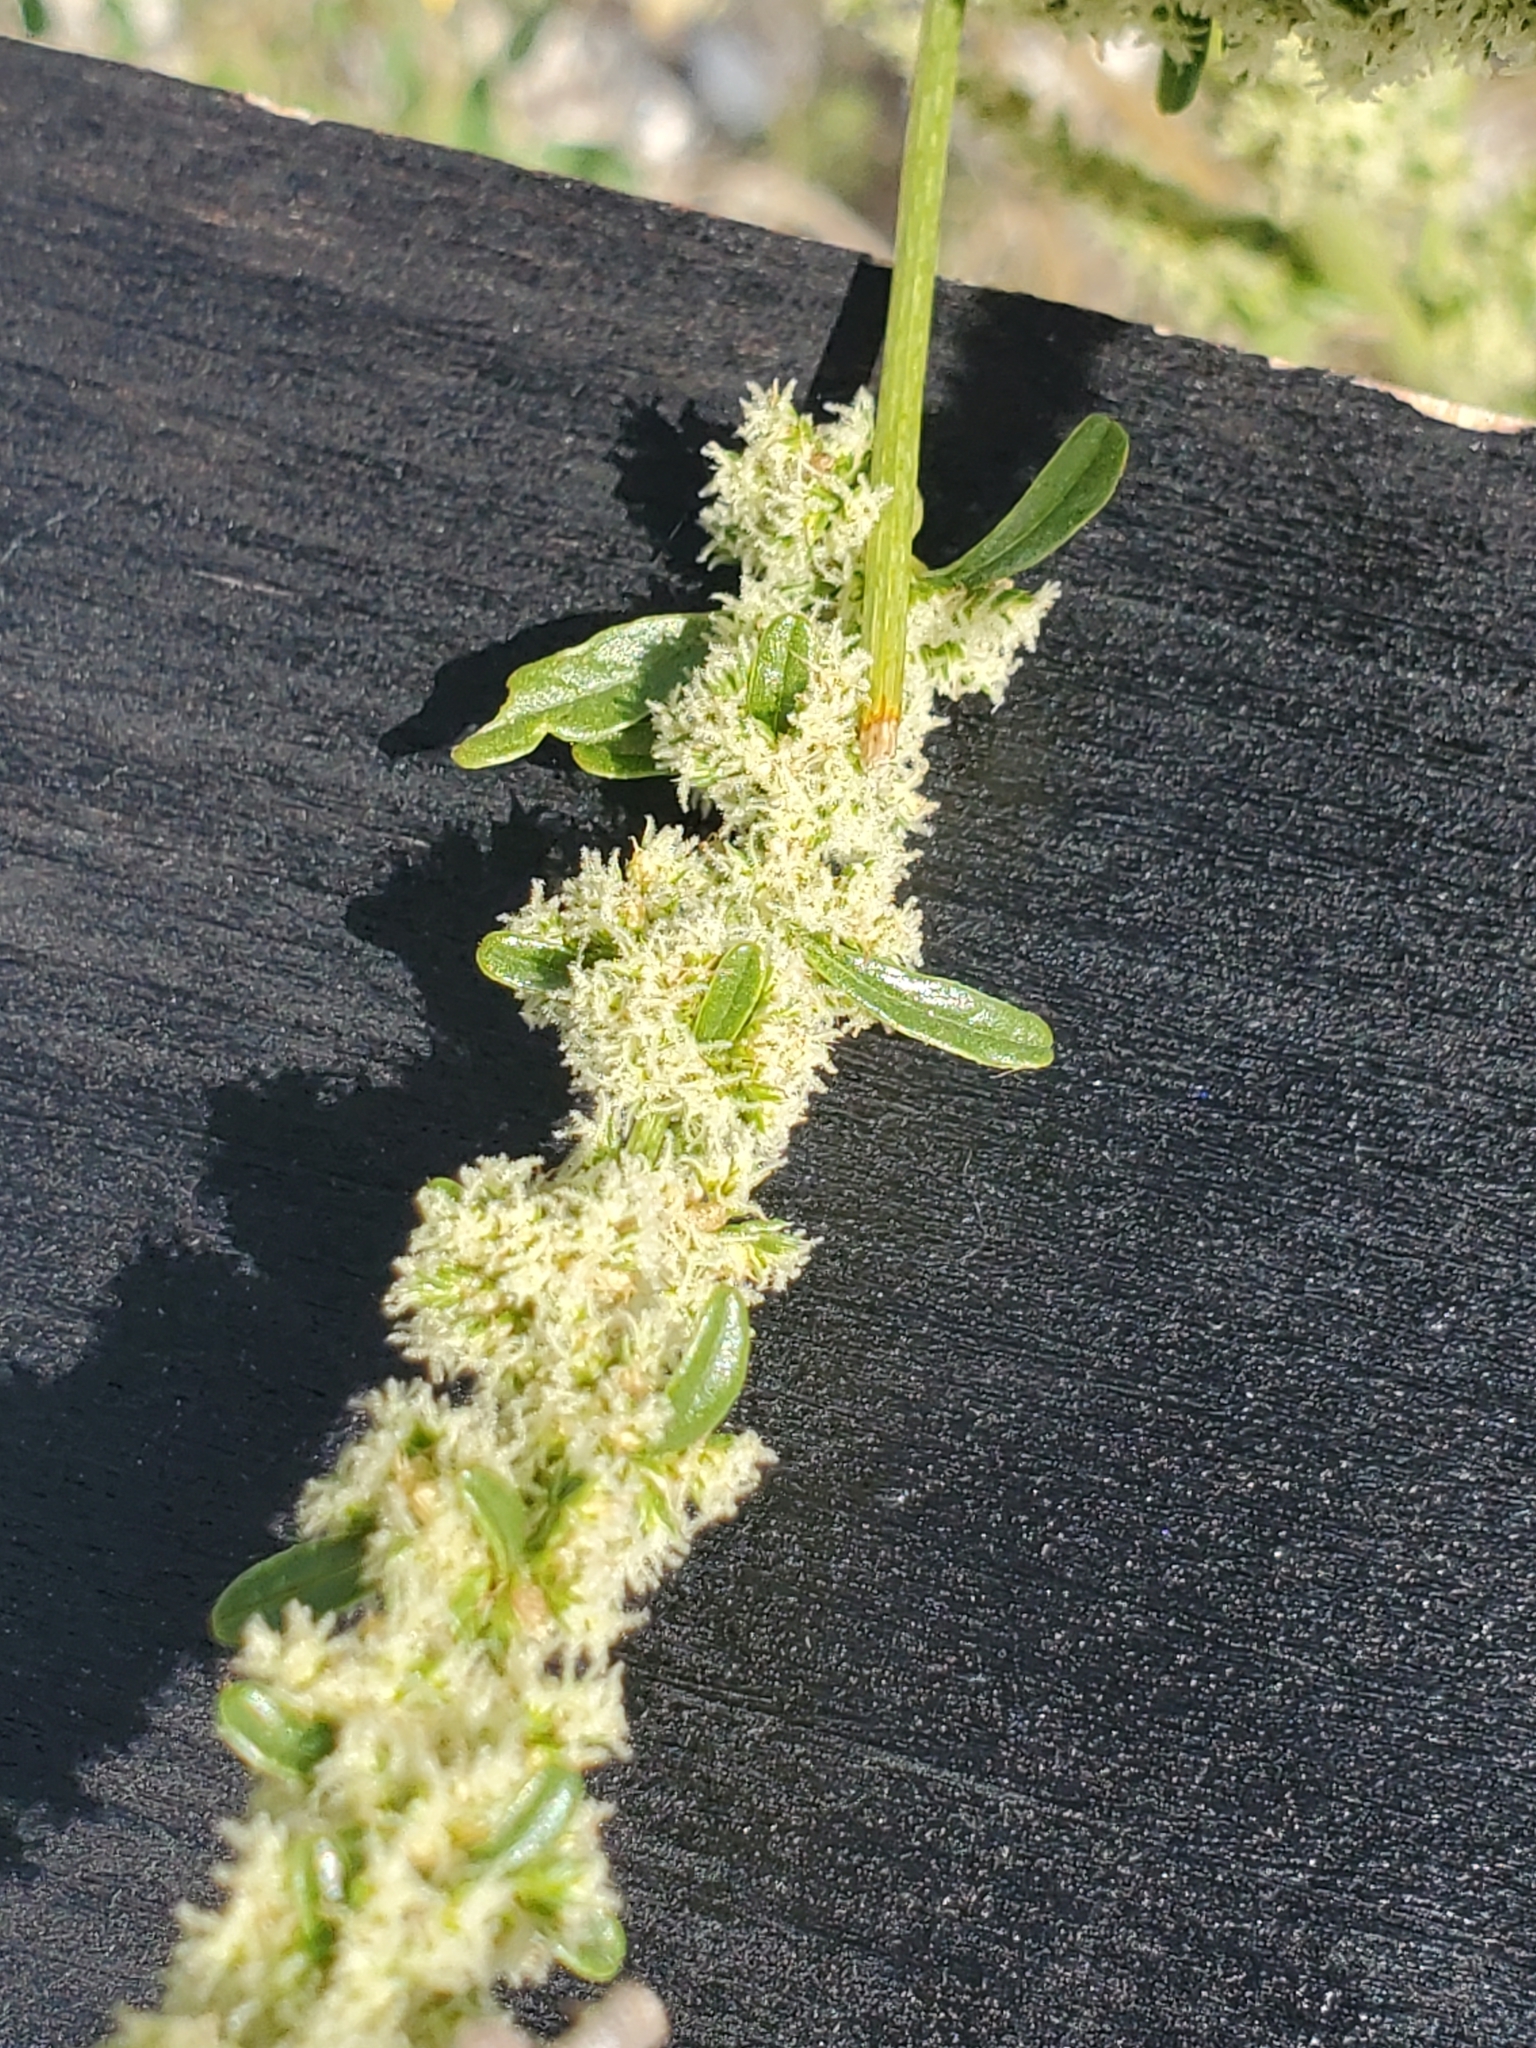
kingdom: Plantae
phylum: Tracheophyta
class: Magnoliopsida
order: Caryophyllales
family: Amaranthaceae
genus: Amaranthus
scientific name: Amaranthus palmeri
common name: Dioecious amaranth
